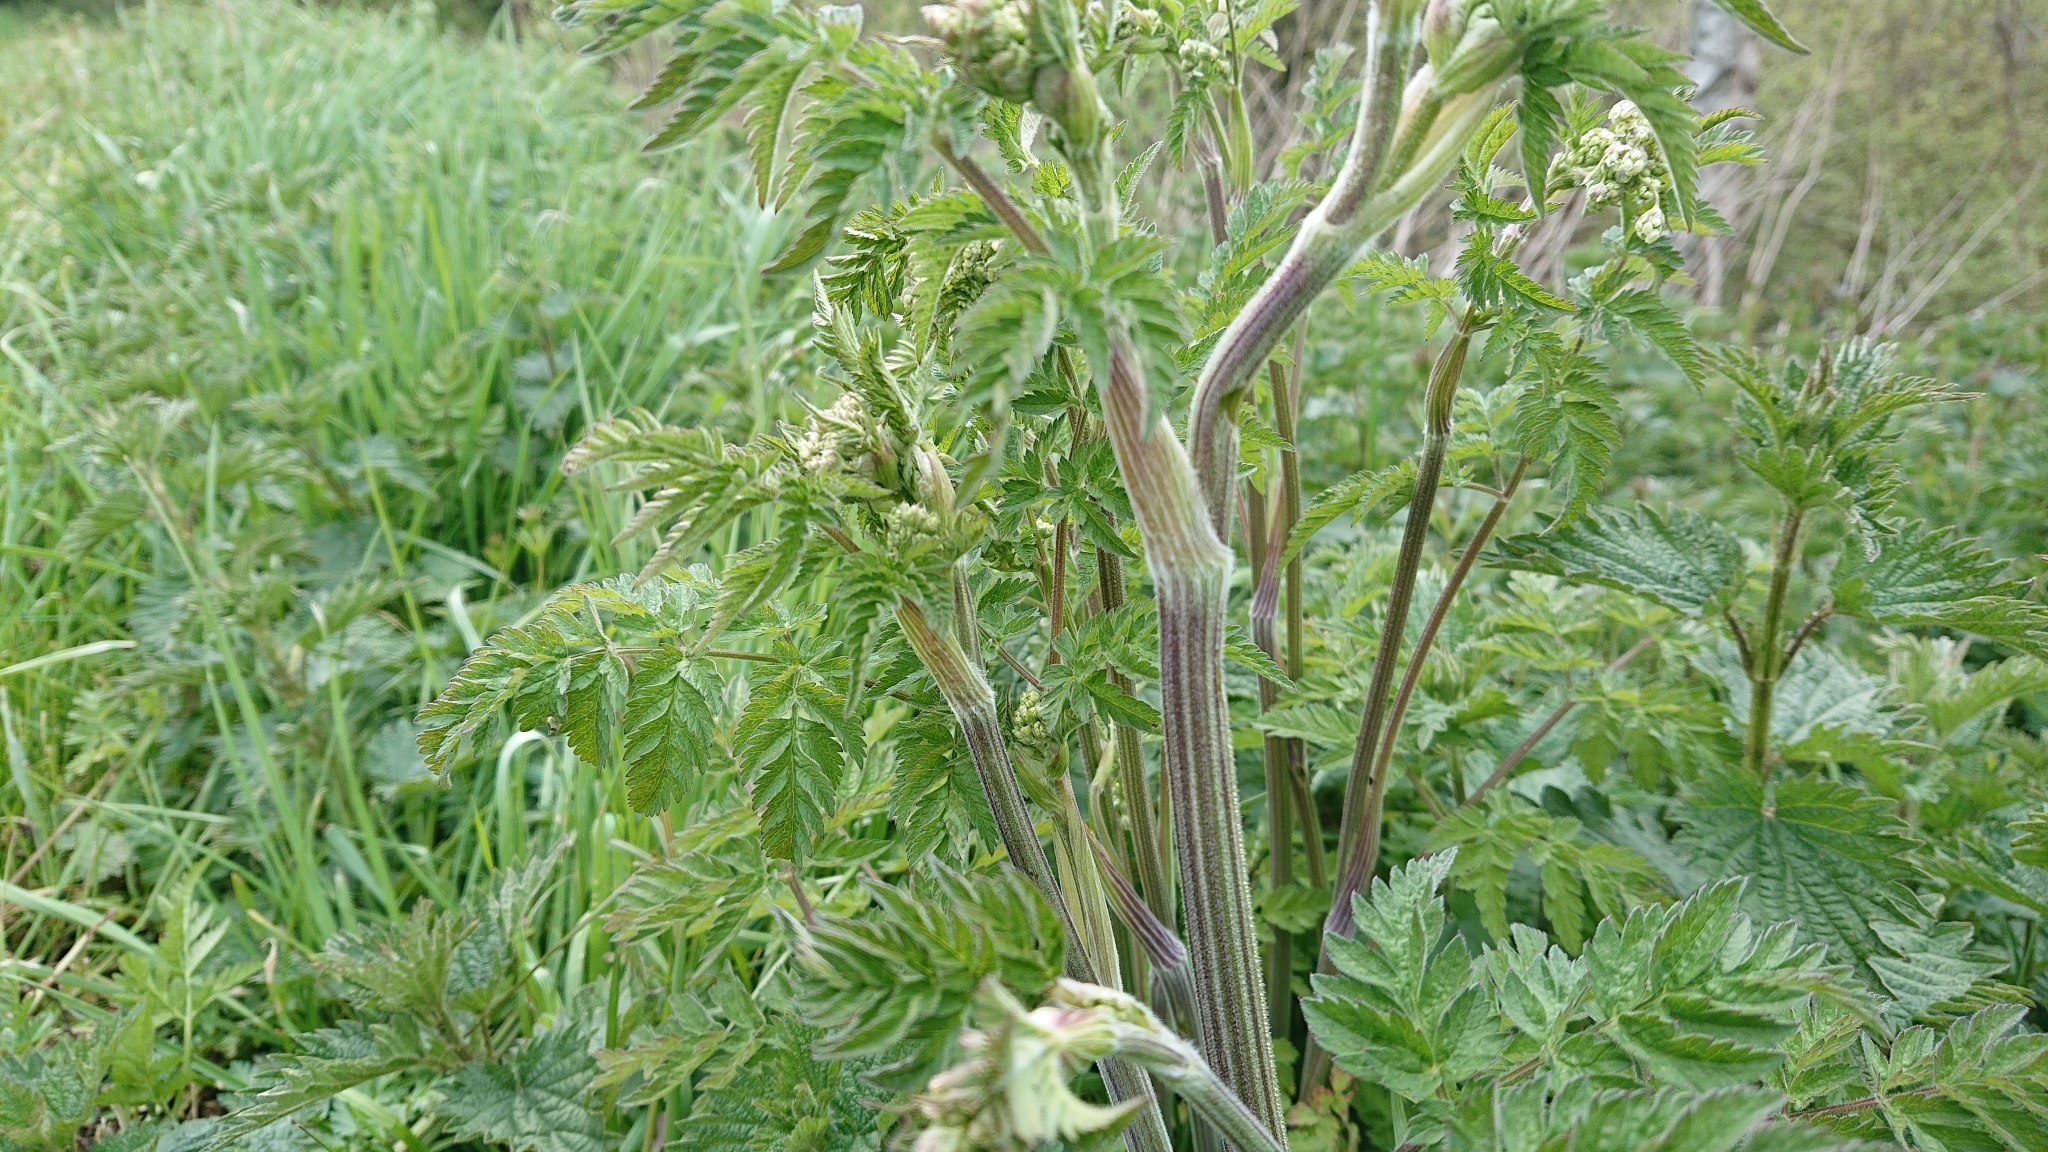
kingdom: Plantae
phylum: Tracheophyta
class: Magnoliopsida
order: Apiales
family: Apiaceae
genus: Anthriscus
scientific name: Anthriscus sylvestris
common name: Cow parsley
